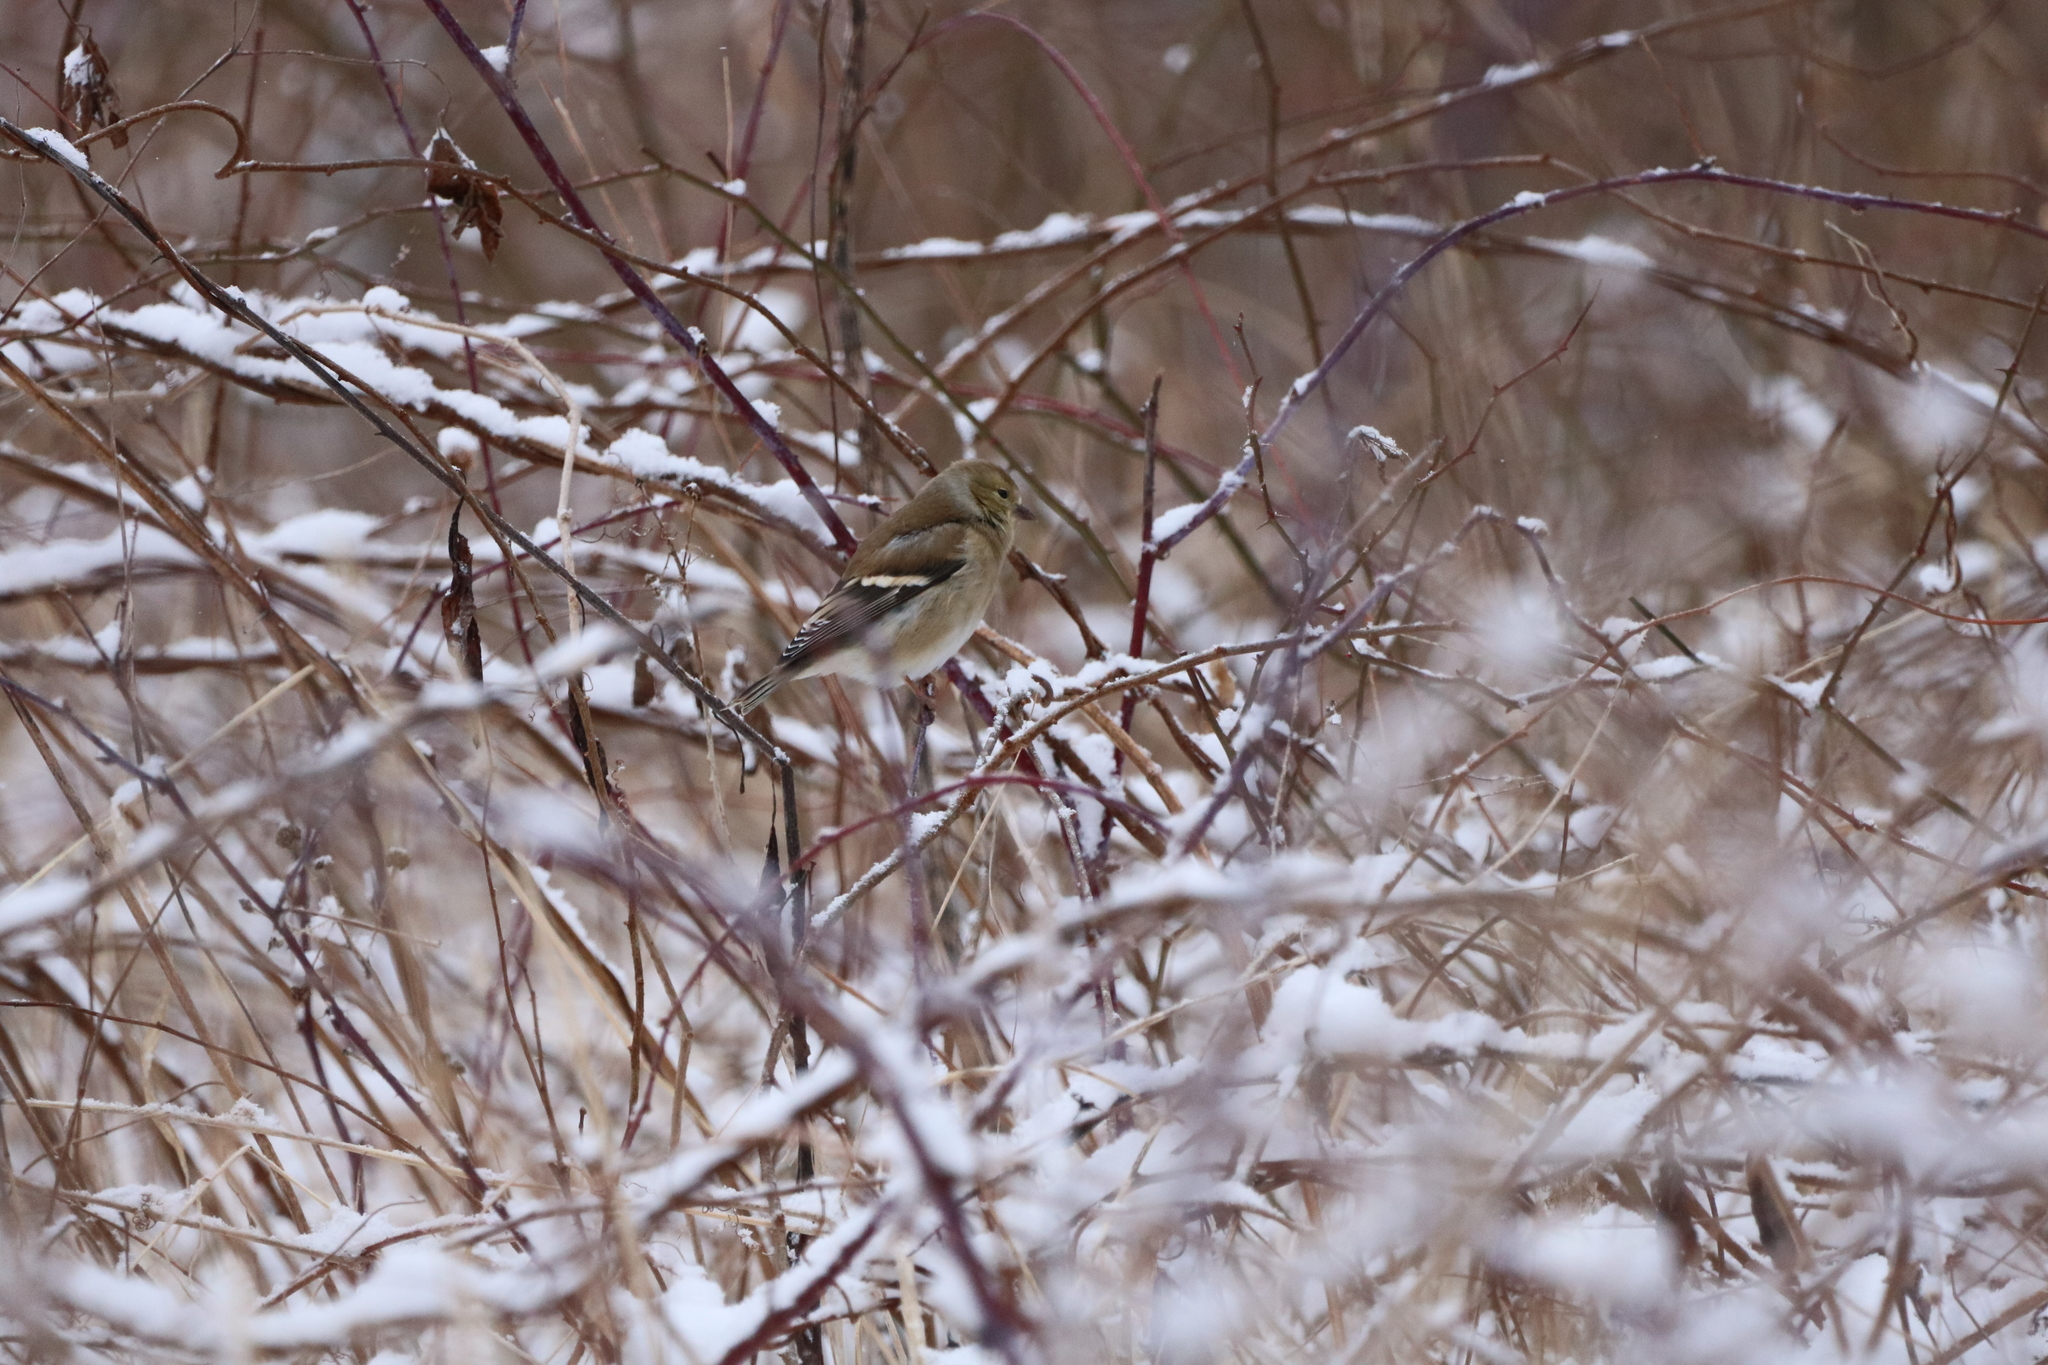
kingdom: Animalia
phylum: Chordata
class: Aves
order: Passeriformes
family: Fringillidae
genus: Spinus
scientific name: Spinus tristis
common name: American goldfinch
